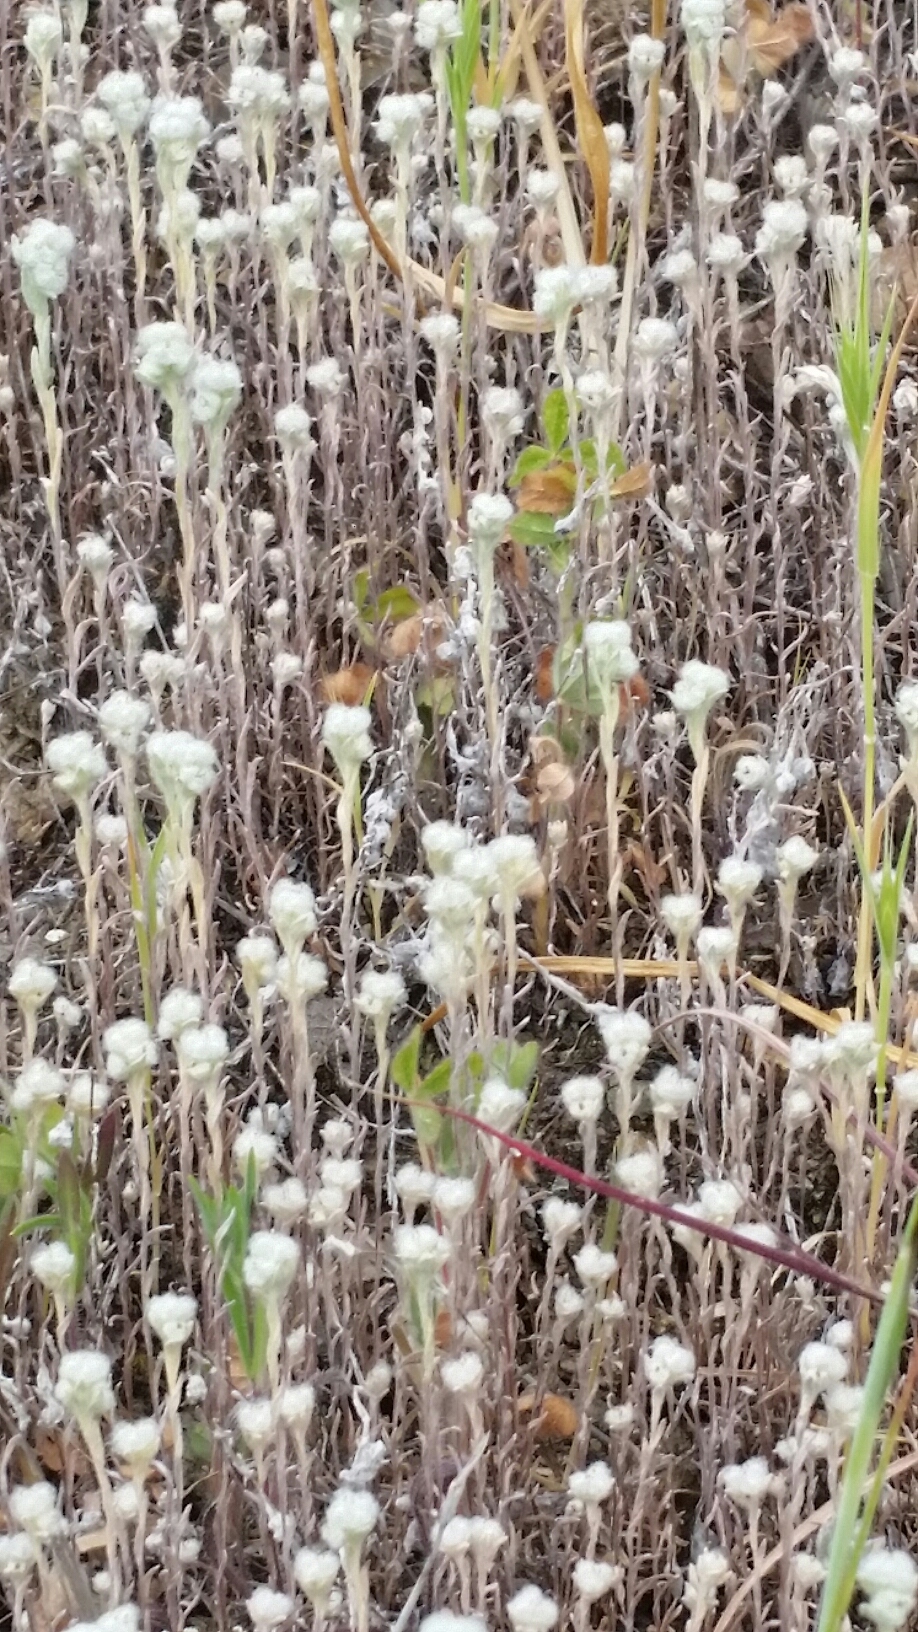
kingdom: Plantae
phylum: Tracheophyta
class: Magnoliopsida
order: Asterales
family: Asteraceae
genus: Bombycilaena
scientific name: Bombycilaena californica
